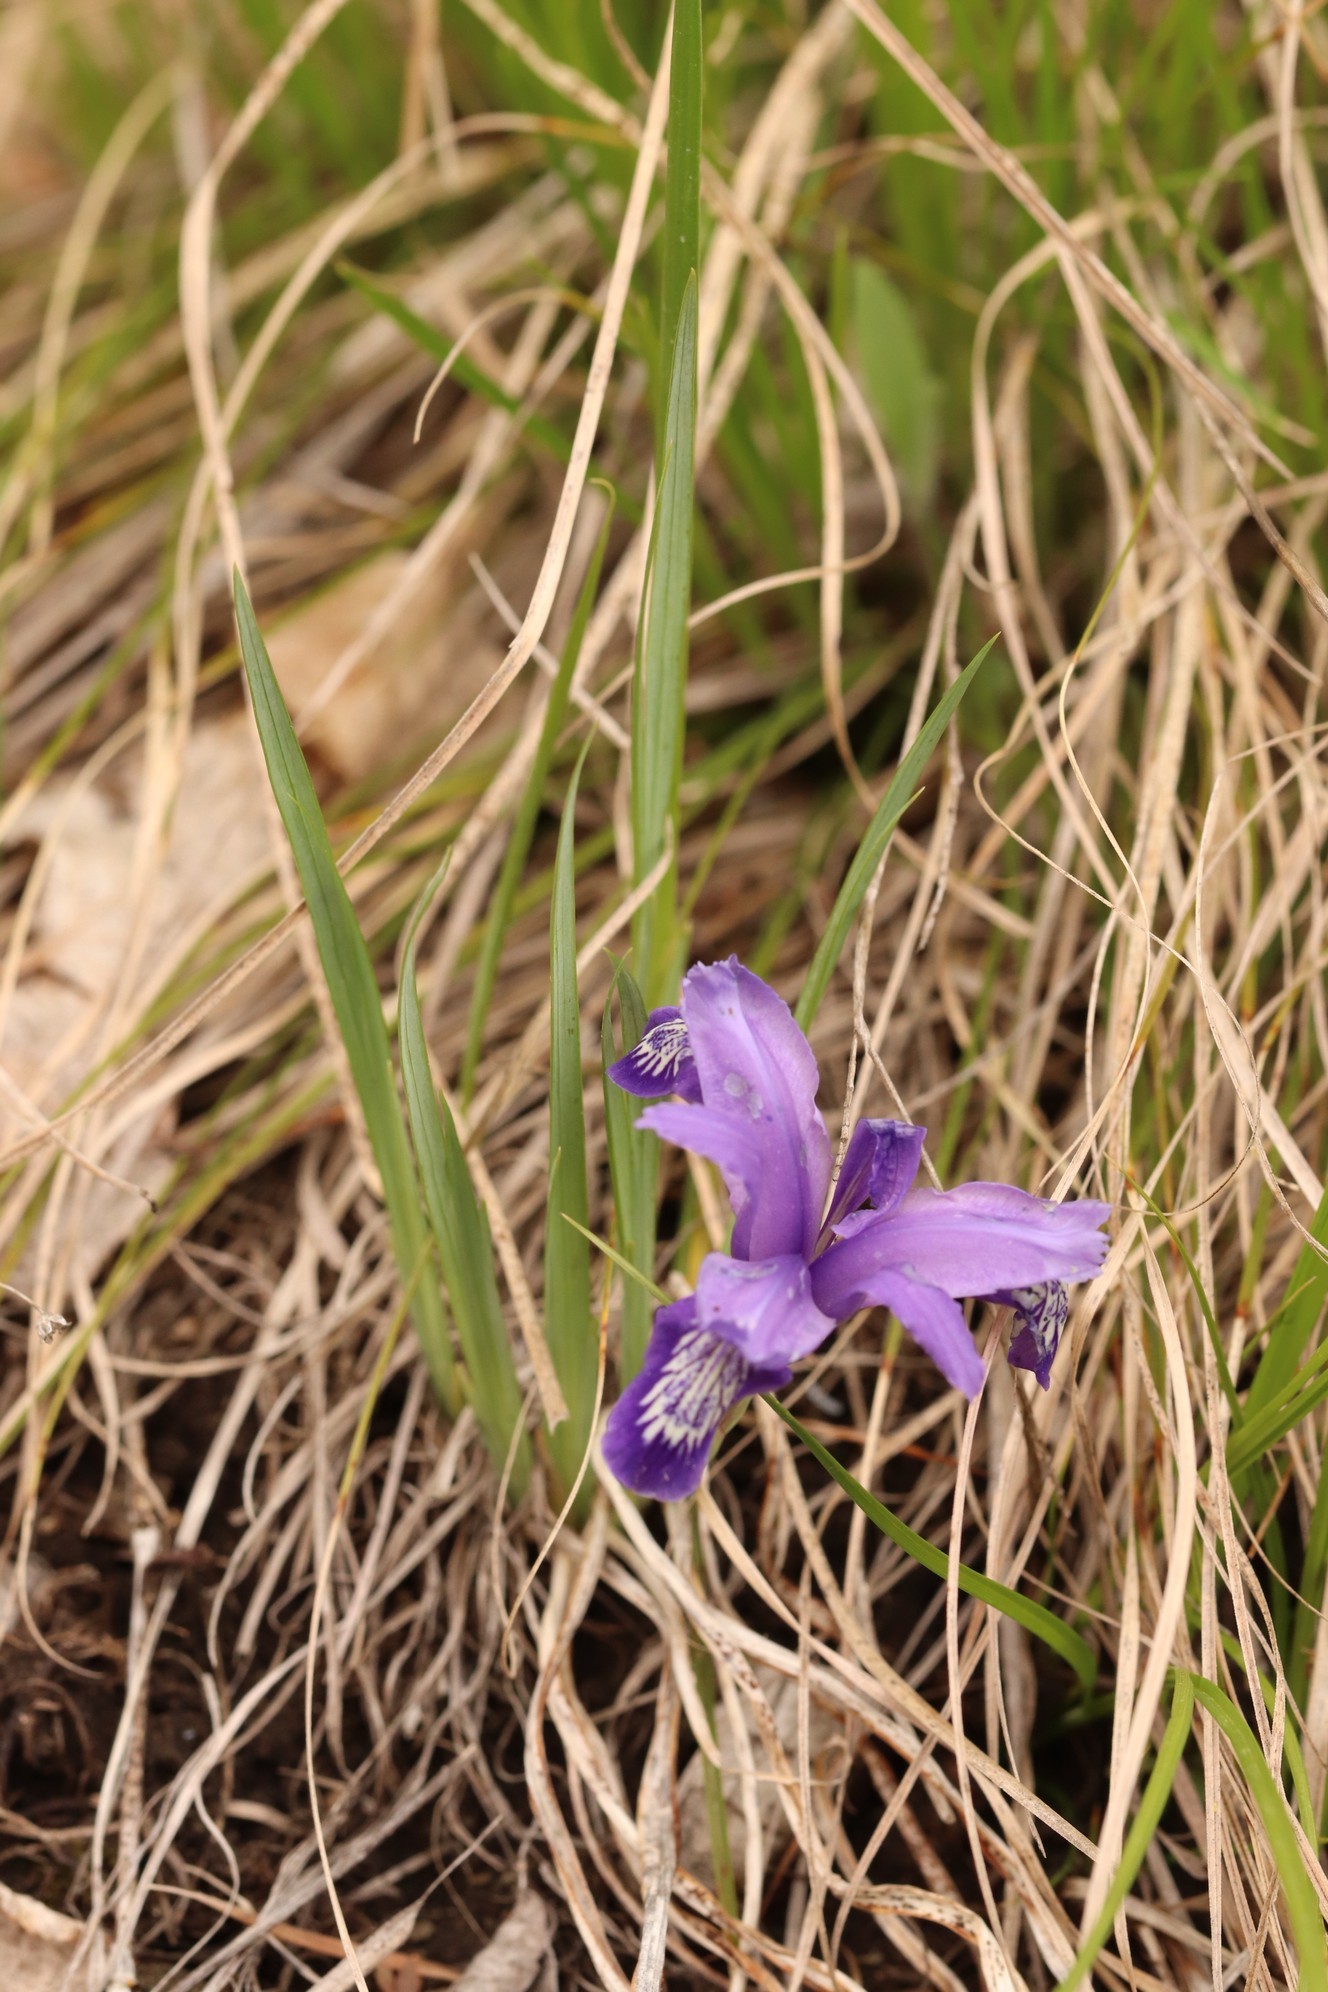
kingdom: Plantae
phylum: Tracheophyta
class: Liliopsida
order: Asparagales
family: Iridaceae
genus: Iris
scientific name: Iris ruthenica
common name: Purple-bract iris
